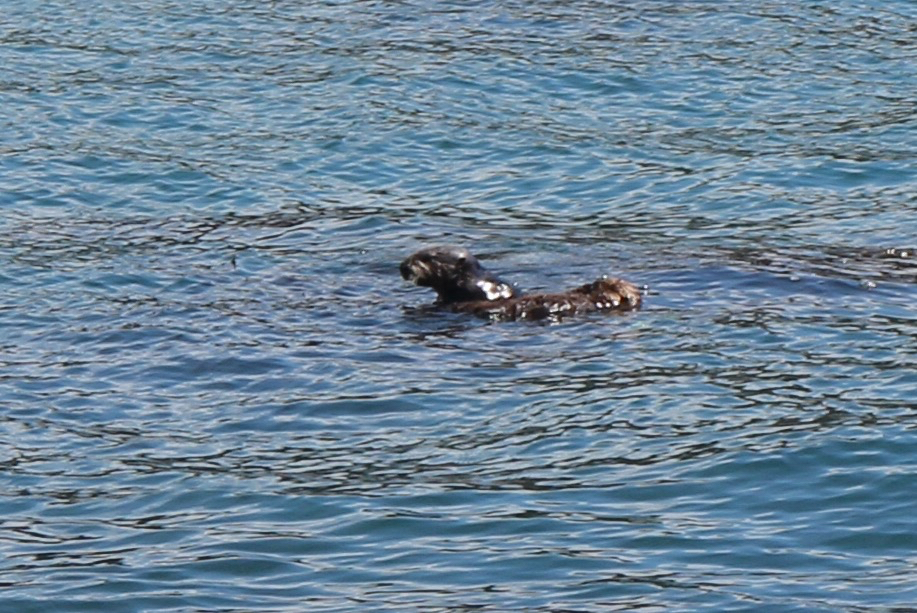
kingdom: Animalia
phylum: Chordata
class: Mammalia
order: Carnivora
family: Mustelidae
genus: Enhydra
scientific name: Enhydra lutris
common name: Sea otter
